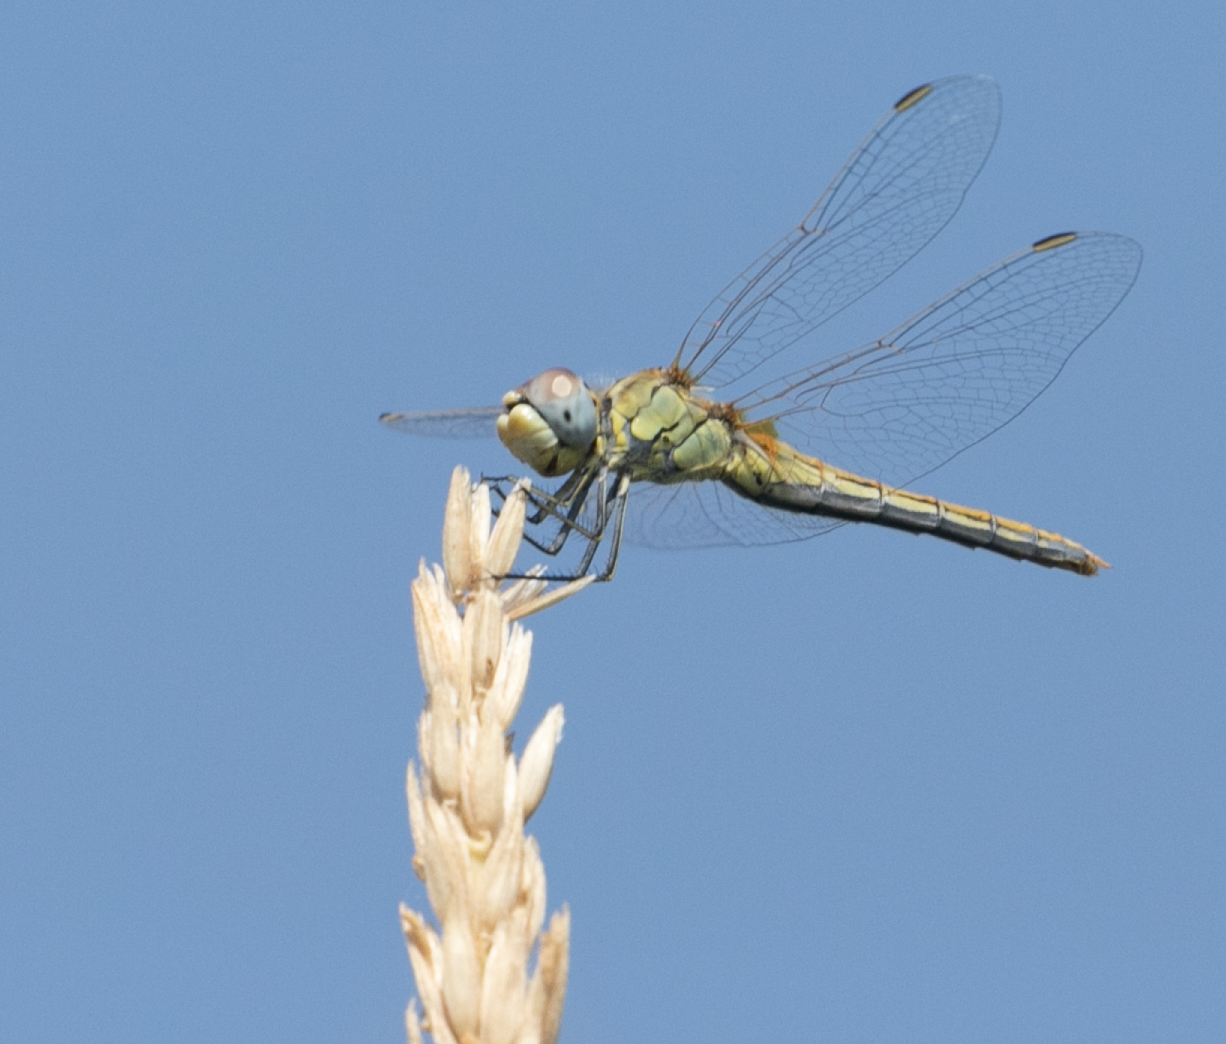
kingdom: Animalia
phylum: Arthropoda
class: Insecta
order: Odonata
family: Libellulidae
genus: Sympetrum
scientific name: Sympetrum fonscolombii
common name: Red-veined darter
